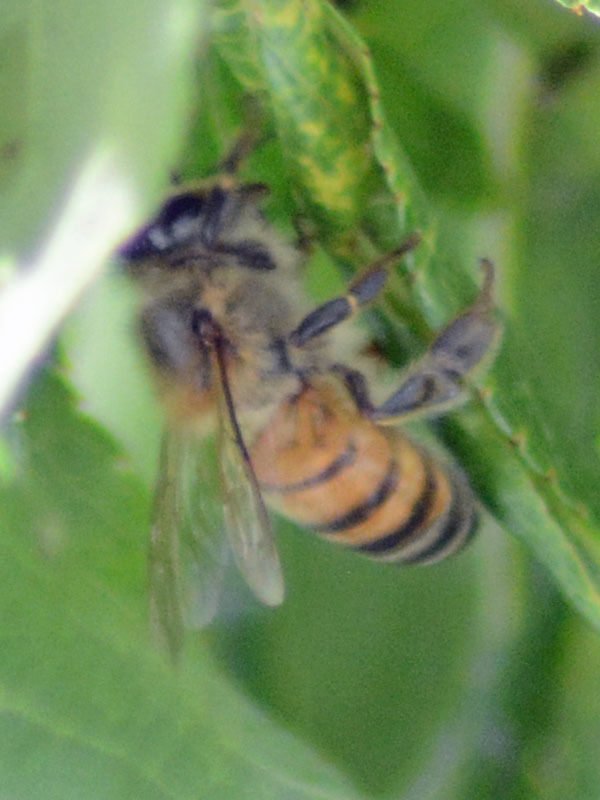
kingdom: Animalia
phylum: Arthropoda
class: Insecta
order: Hymenoptera
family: Apidae
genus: Apis
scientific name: Apis mellifera
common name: Honey bee
